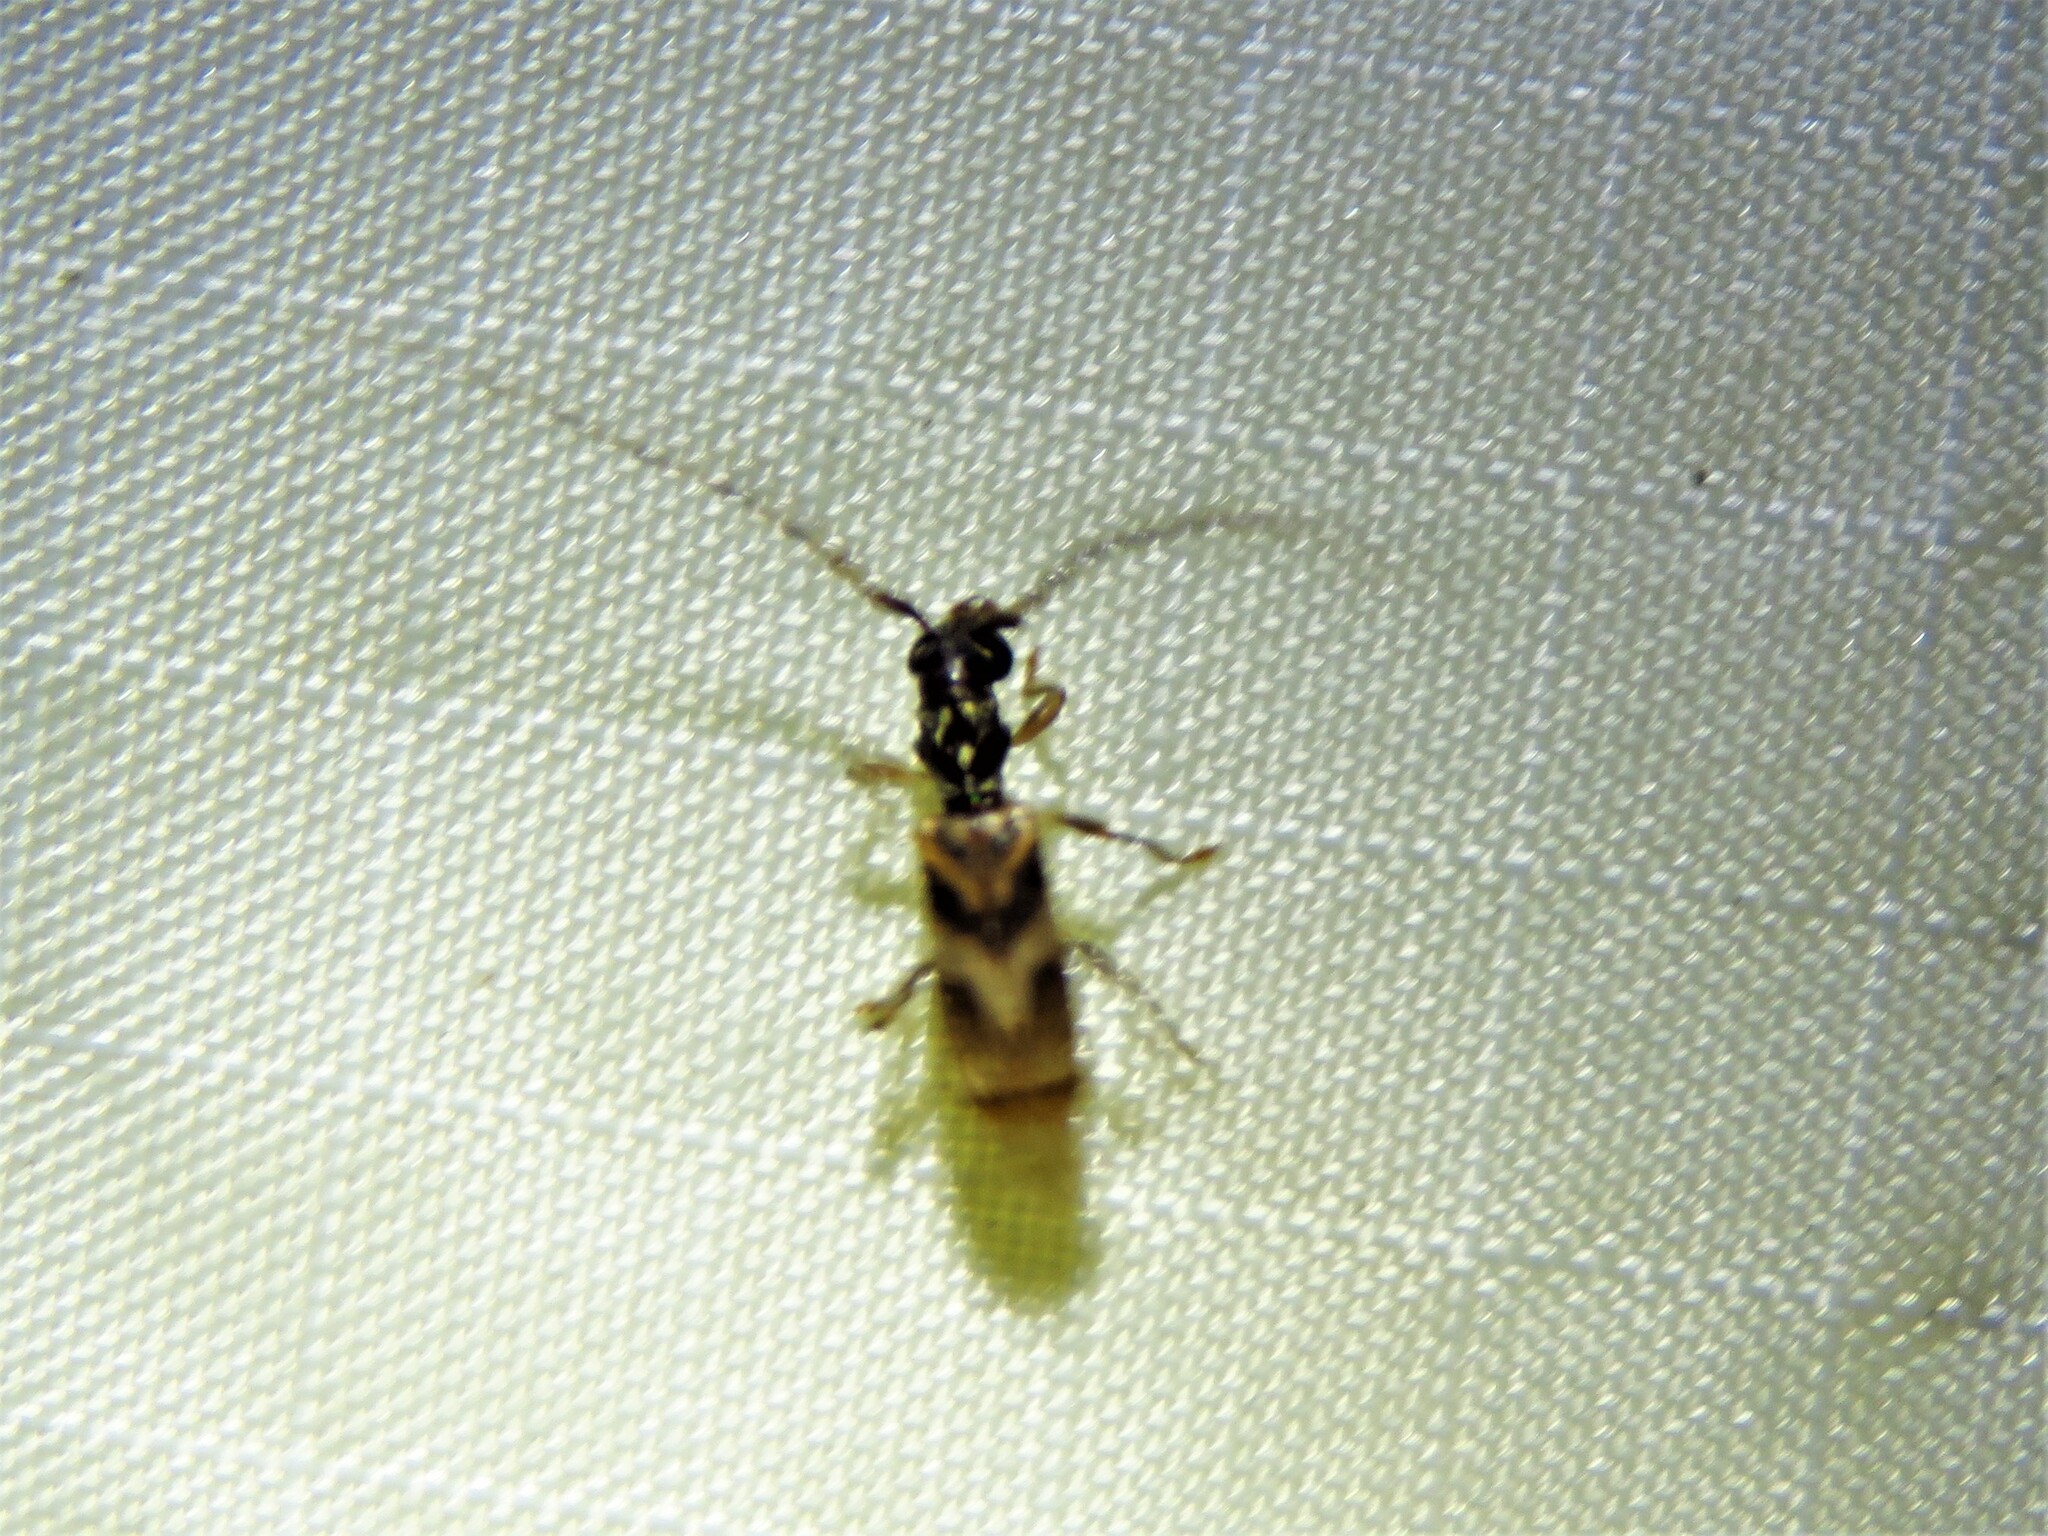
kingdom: Animalia
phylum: Arthropoda
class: Insecta
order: Coleoptera
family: Cerambycidae
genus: Stenhomalus
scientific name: Stenhomalus taiwanus
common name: Taiwan slender longhorned beetle
